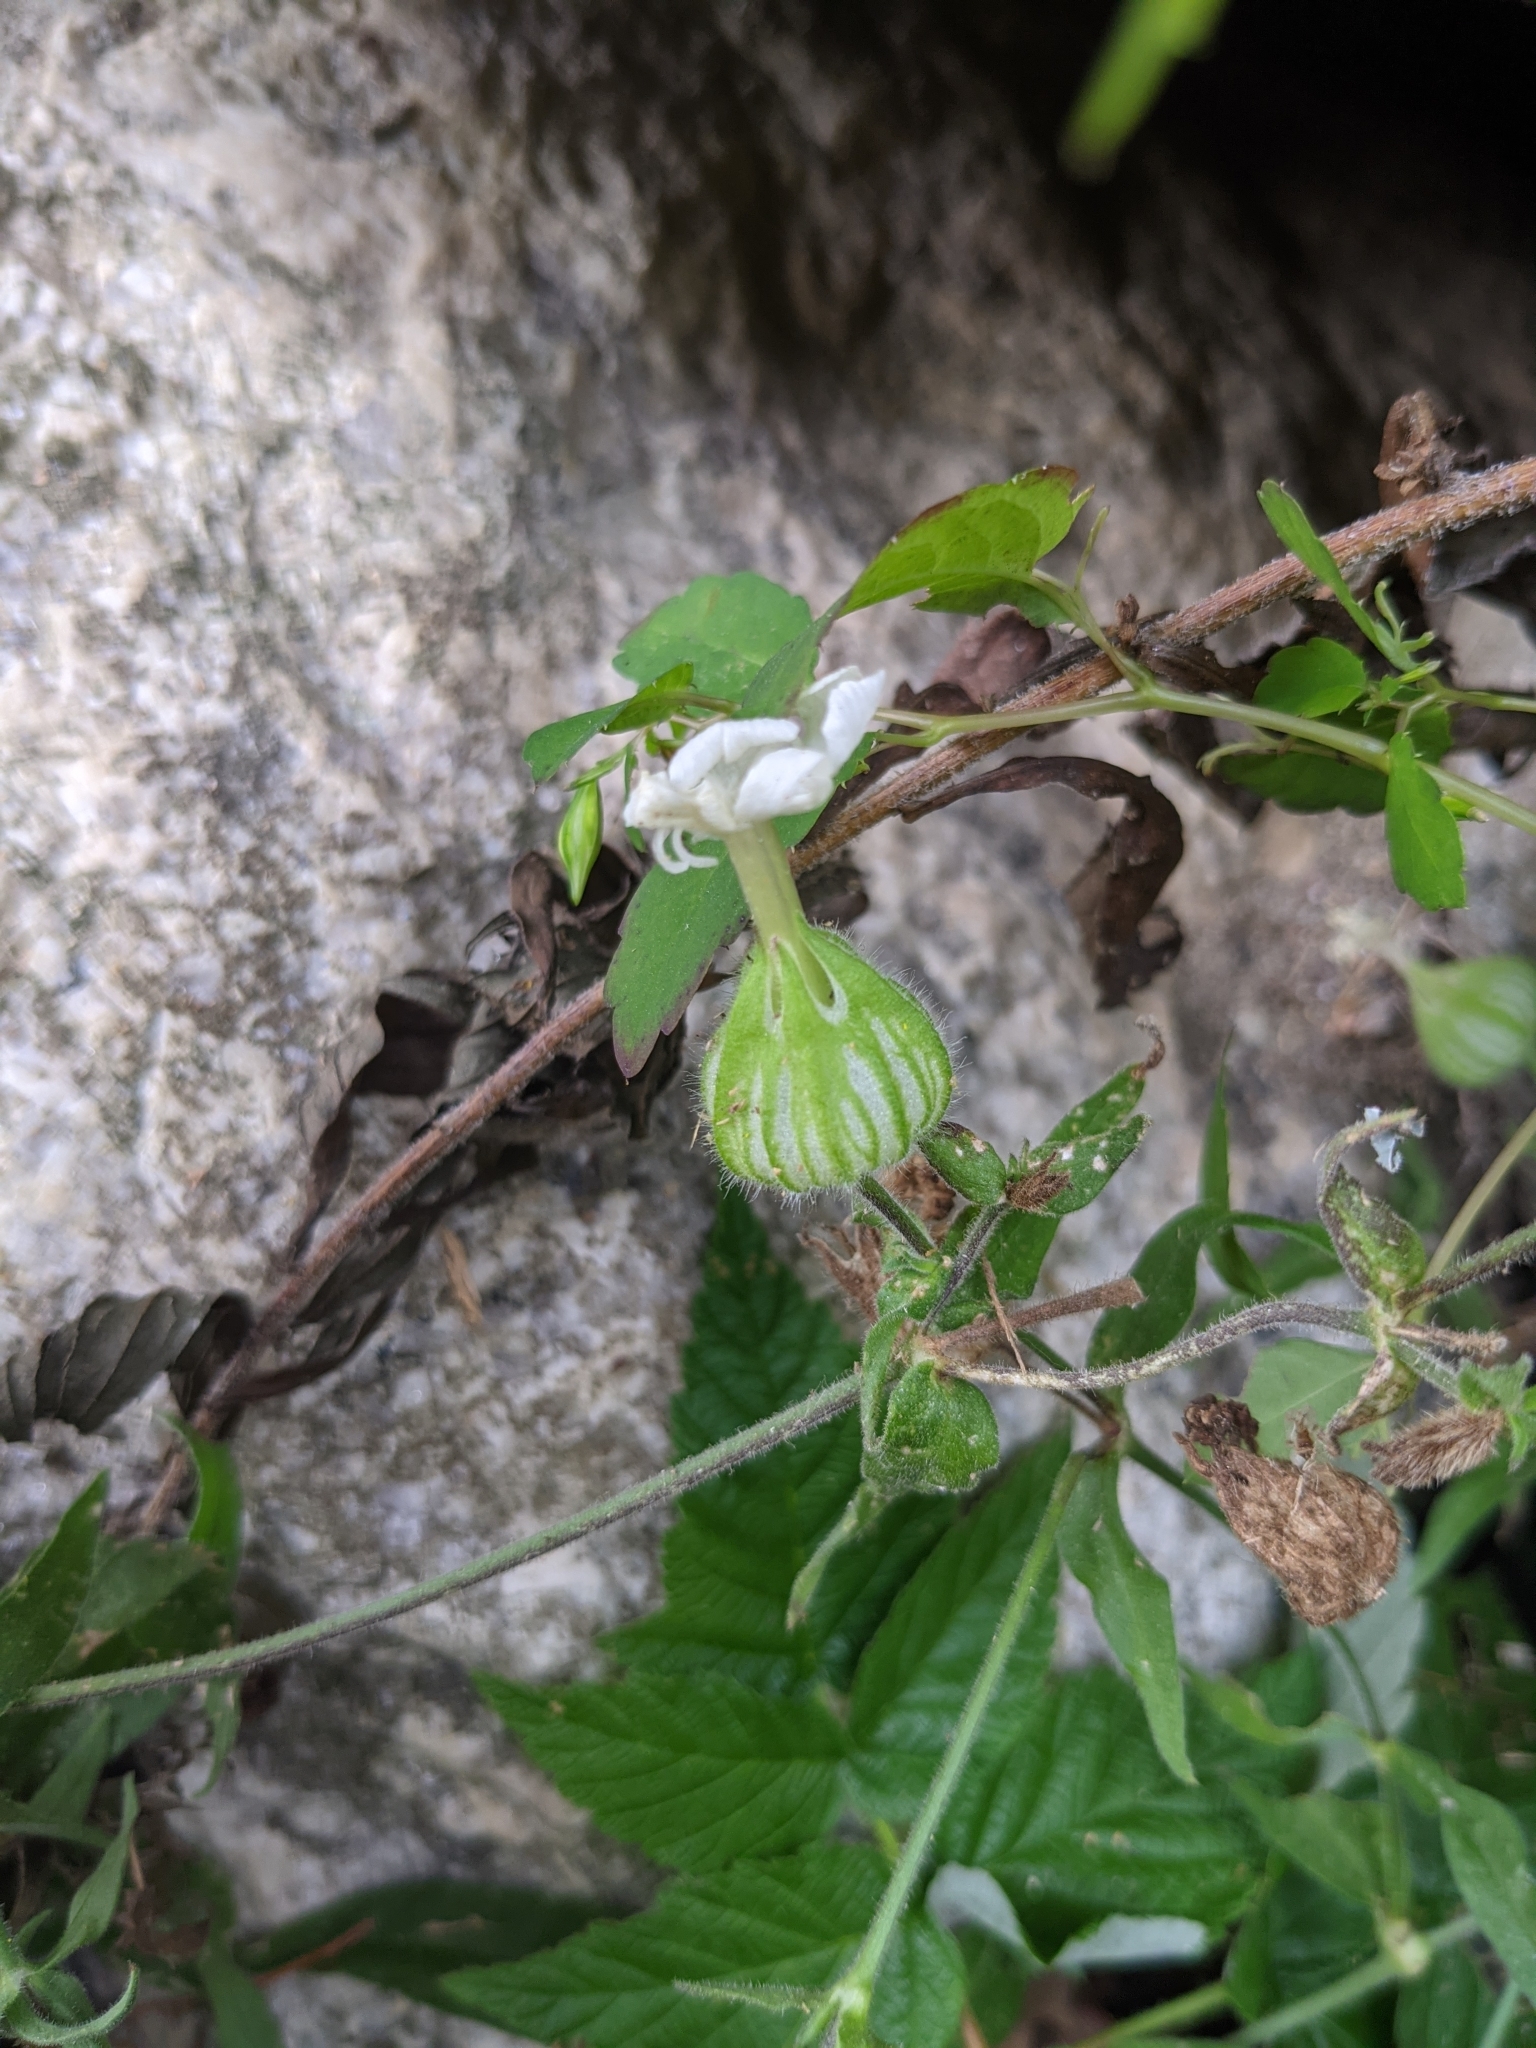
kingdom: Plantae
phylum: Tracheophyta
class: Magnoliopsida
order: Caryophyllales
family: Caryophyllaceae
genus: Silene
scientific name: Silene latifolia
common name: White campion
